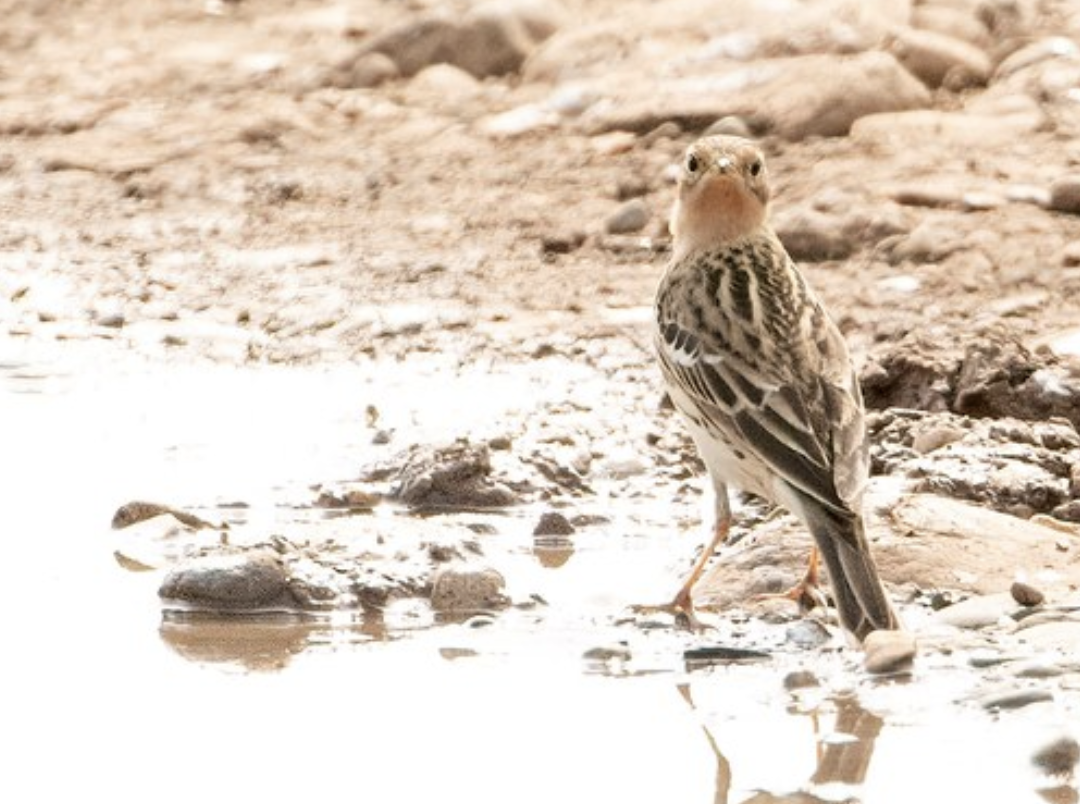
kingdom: Animalia
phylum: Chordata
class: Aves
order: Passeriformes
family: Motacillidae
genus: Anthus
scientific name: Anthus cervinus
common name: Red-throated pipit
